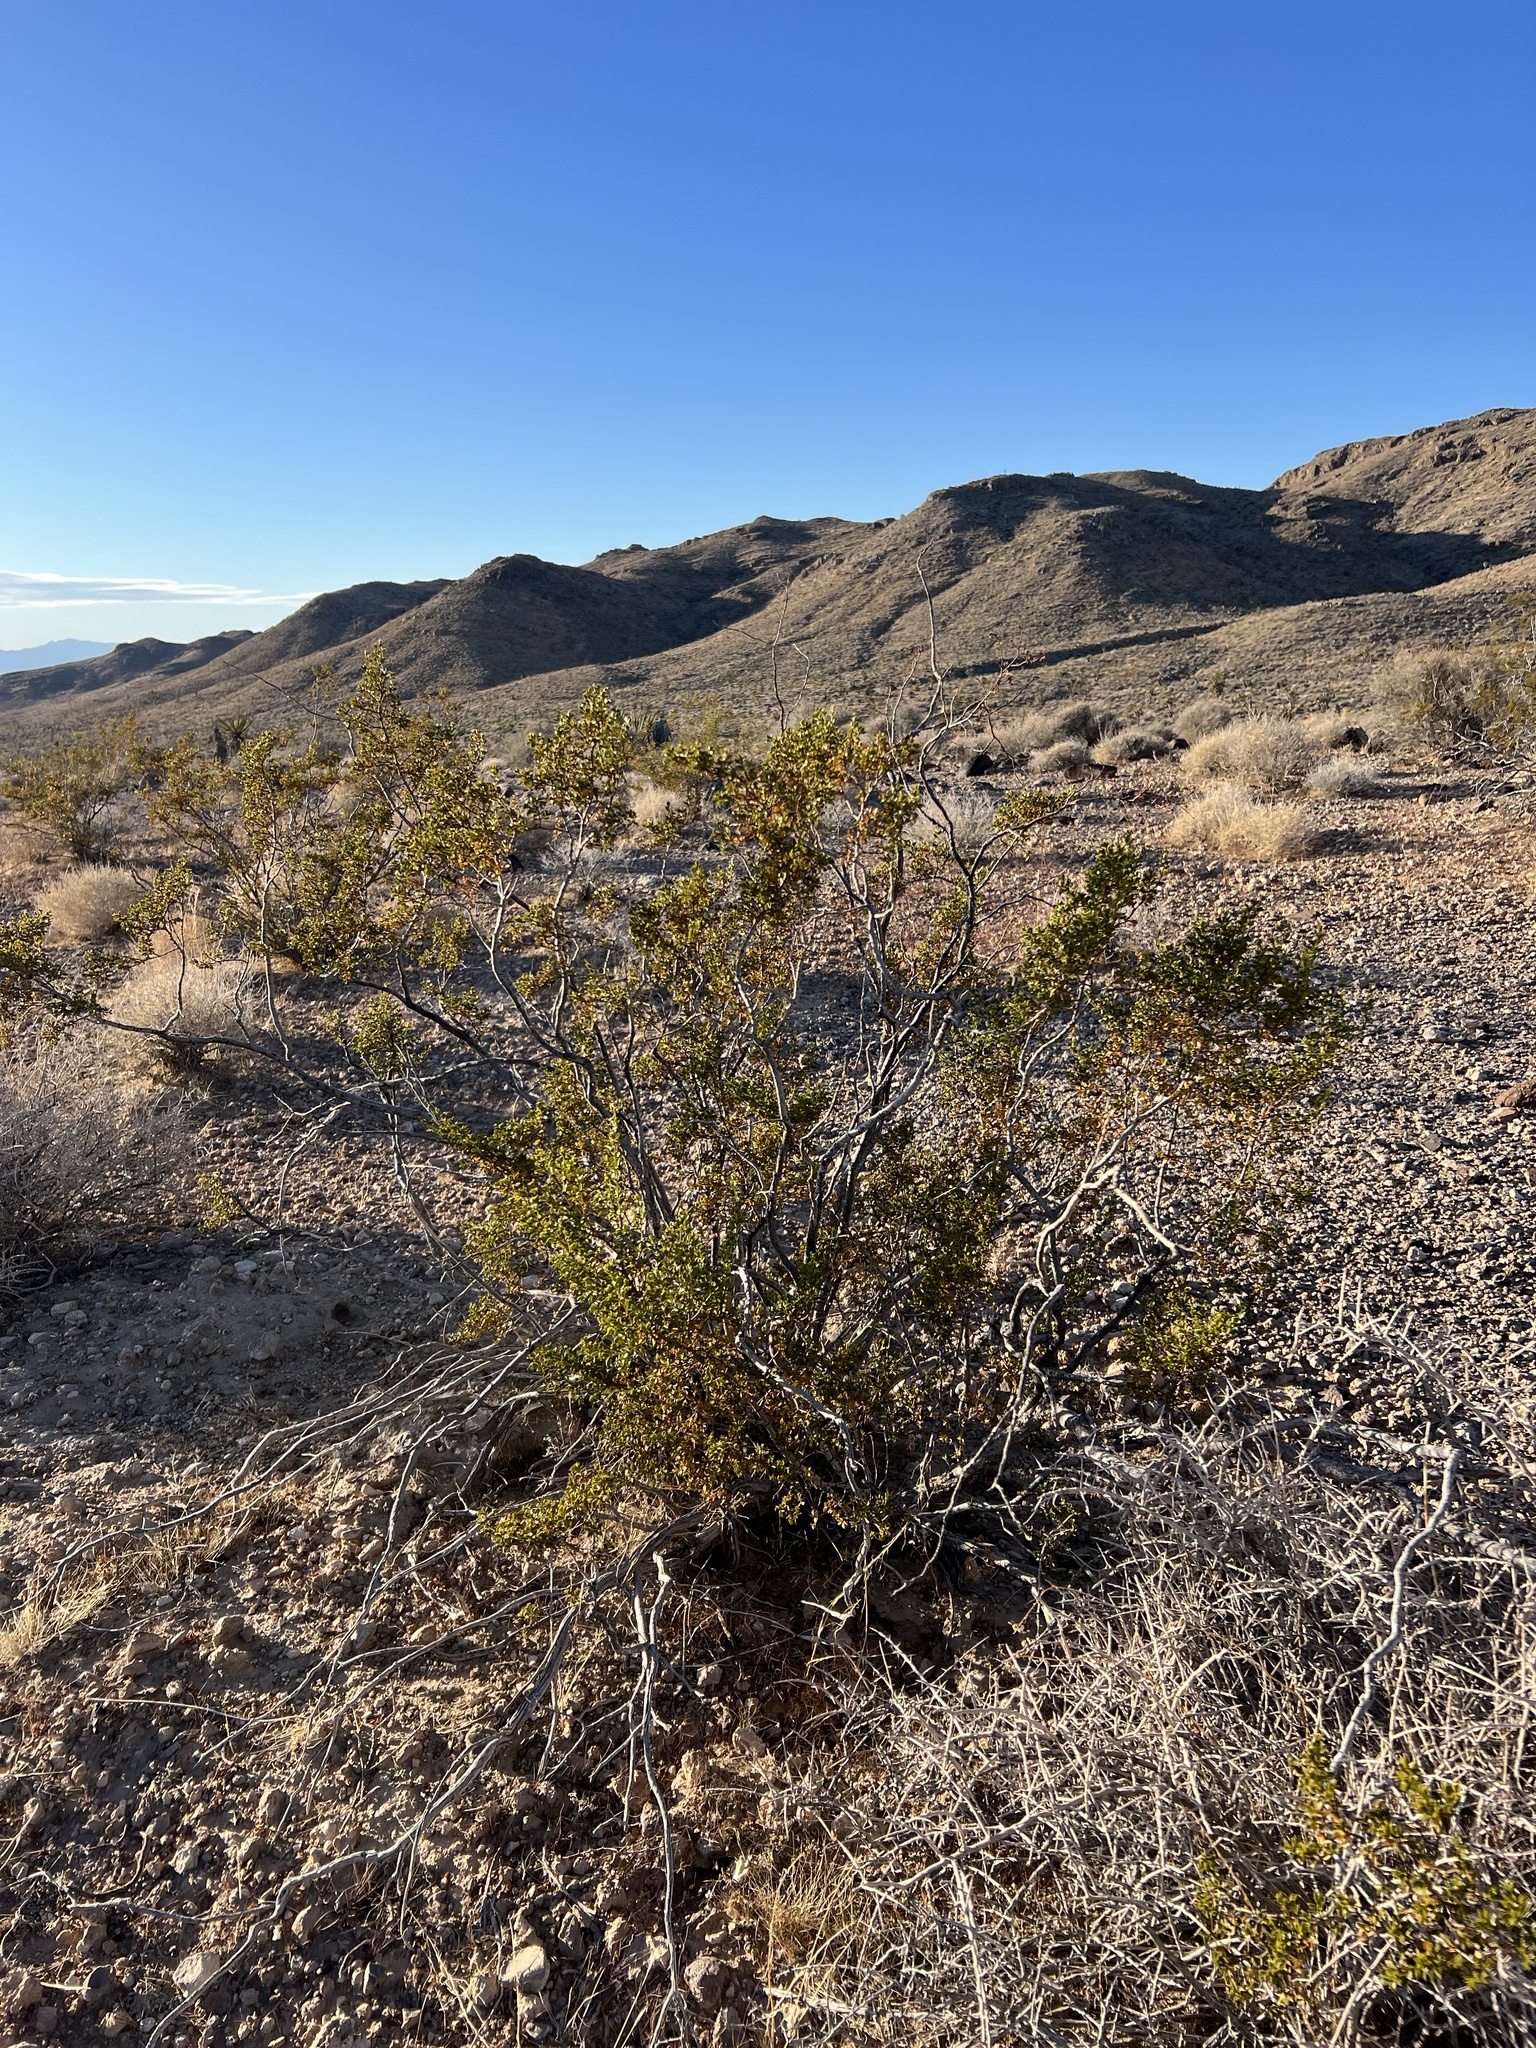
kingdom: Plantae
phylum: Tracheophyta
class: Magnoliopsida
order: Zygophyllales
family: Zygophyllaceae
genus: Larrea
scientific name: Larrea tridentata
